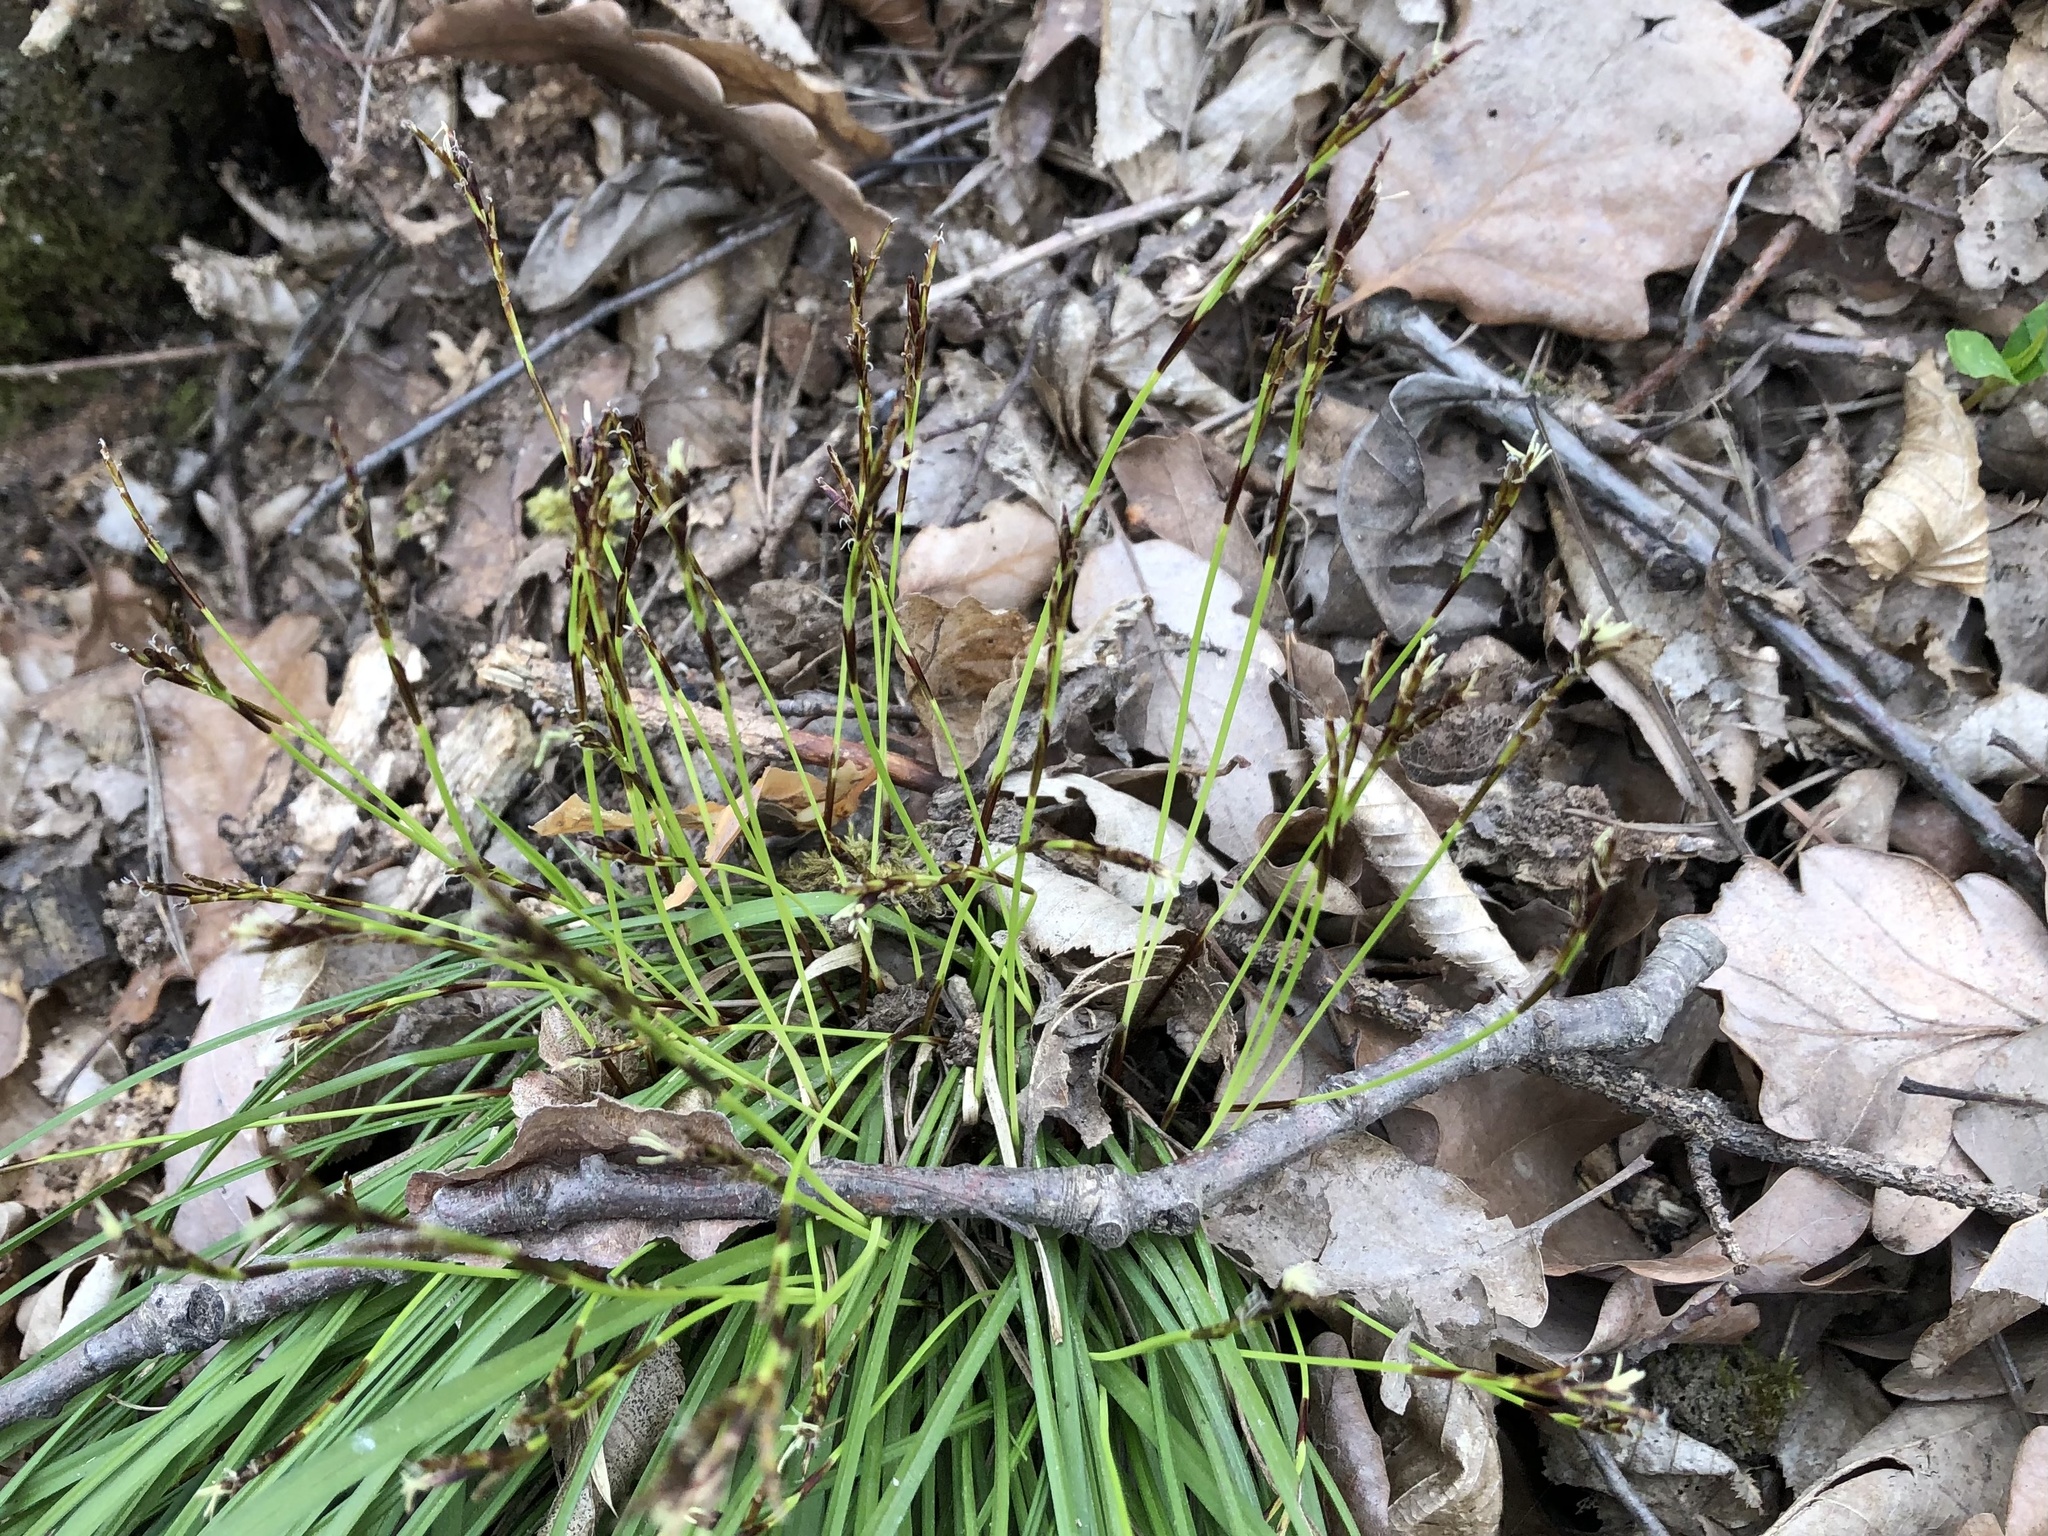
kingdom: Plantae
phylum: Tracheophyta
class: Liliopsida
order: Poales
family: Cyperaceae
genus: Carex
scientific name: Carex digitata
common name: Fingered sedge
